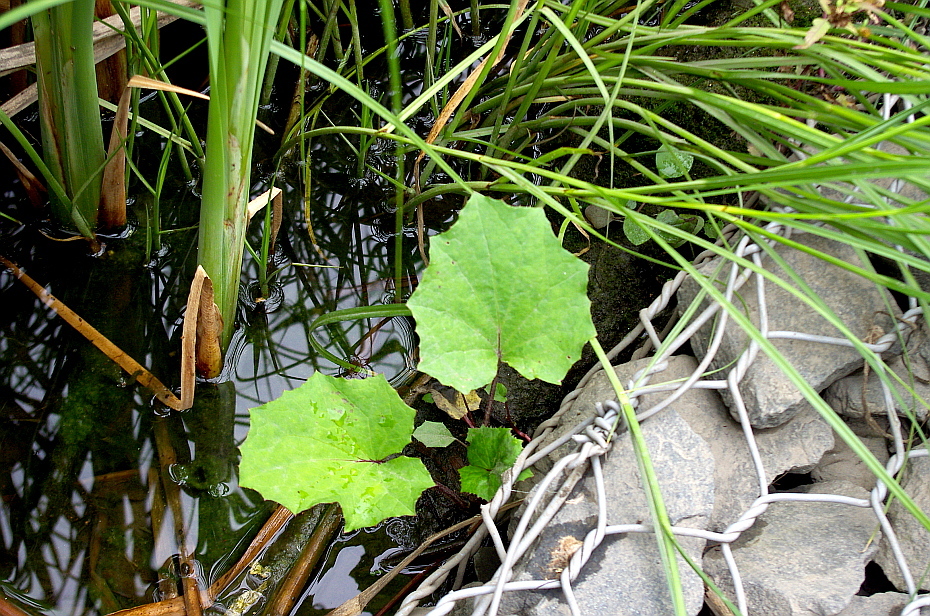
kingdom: Plantae
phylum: Tracheophyta
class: Magnoliopsida
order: Asterales
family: Asteraceae
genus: Tussilago
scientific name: Tussilago farfara
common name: Coltsfoot
